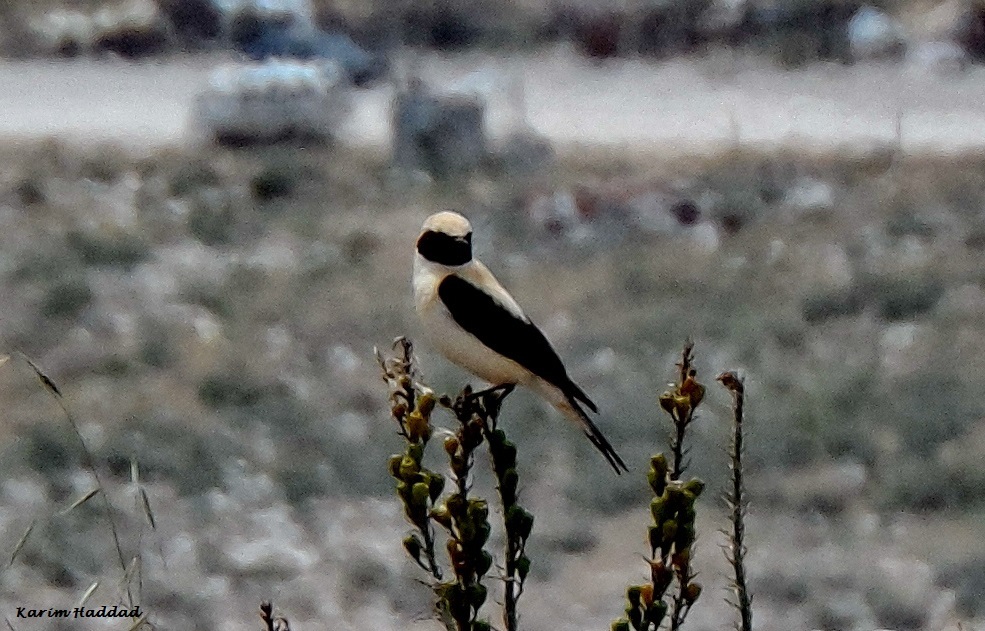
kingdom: Animalia
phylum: Chordata
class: Aves
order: Passeriformes
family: Muscicapidae
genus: Oenanthe
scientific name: Oenanthe hispanica
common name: Black-eared wheatear
